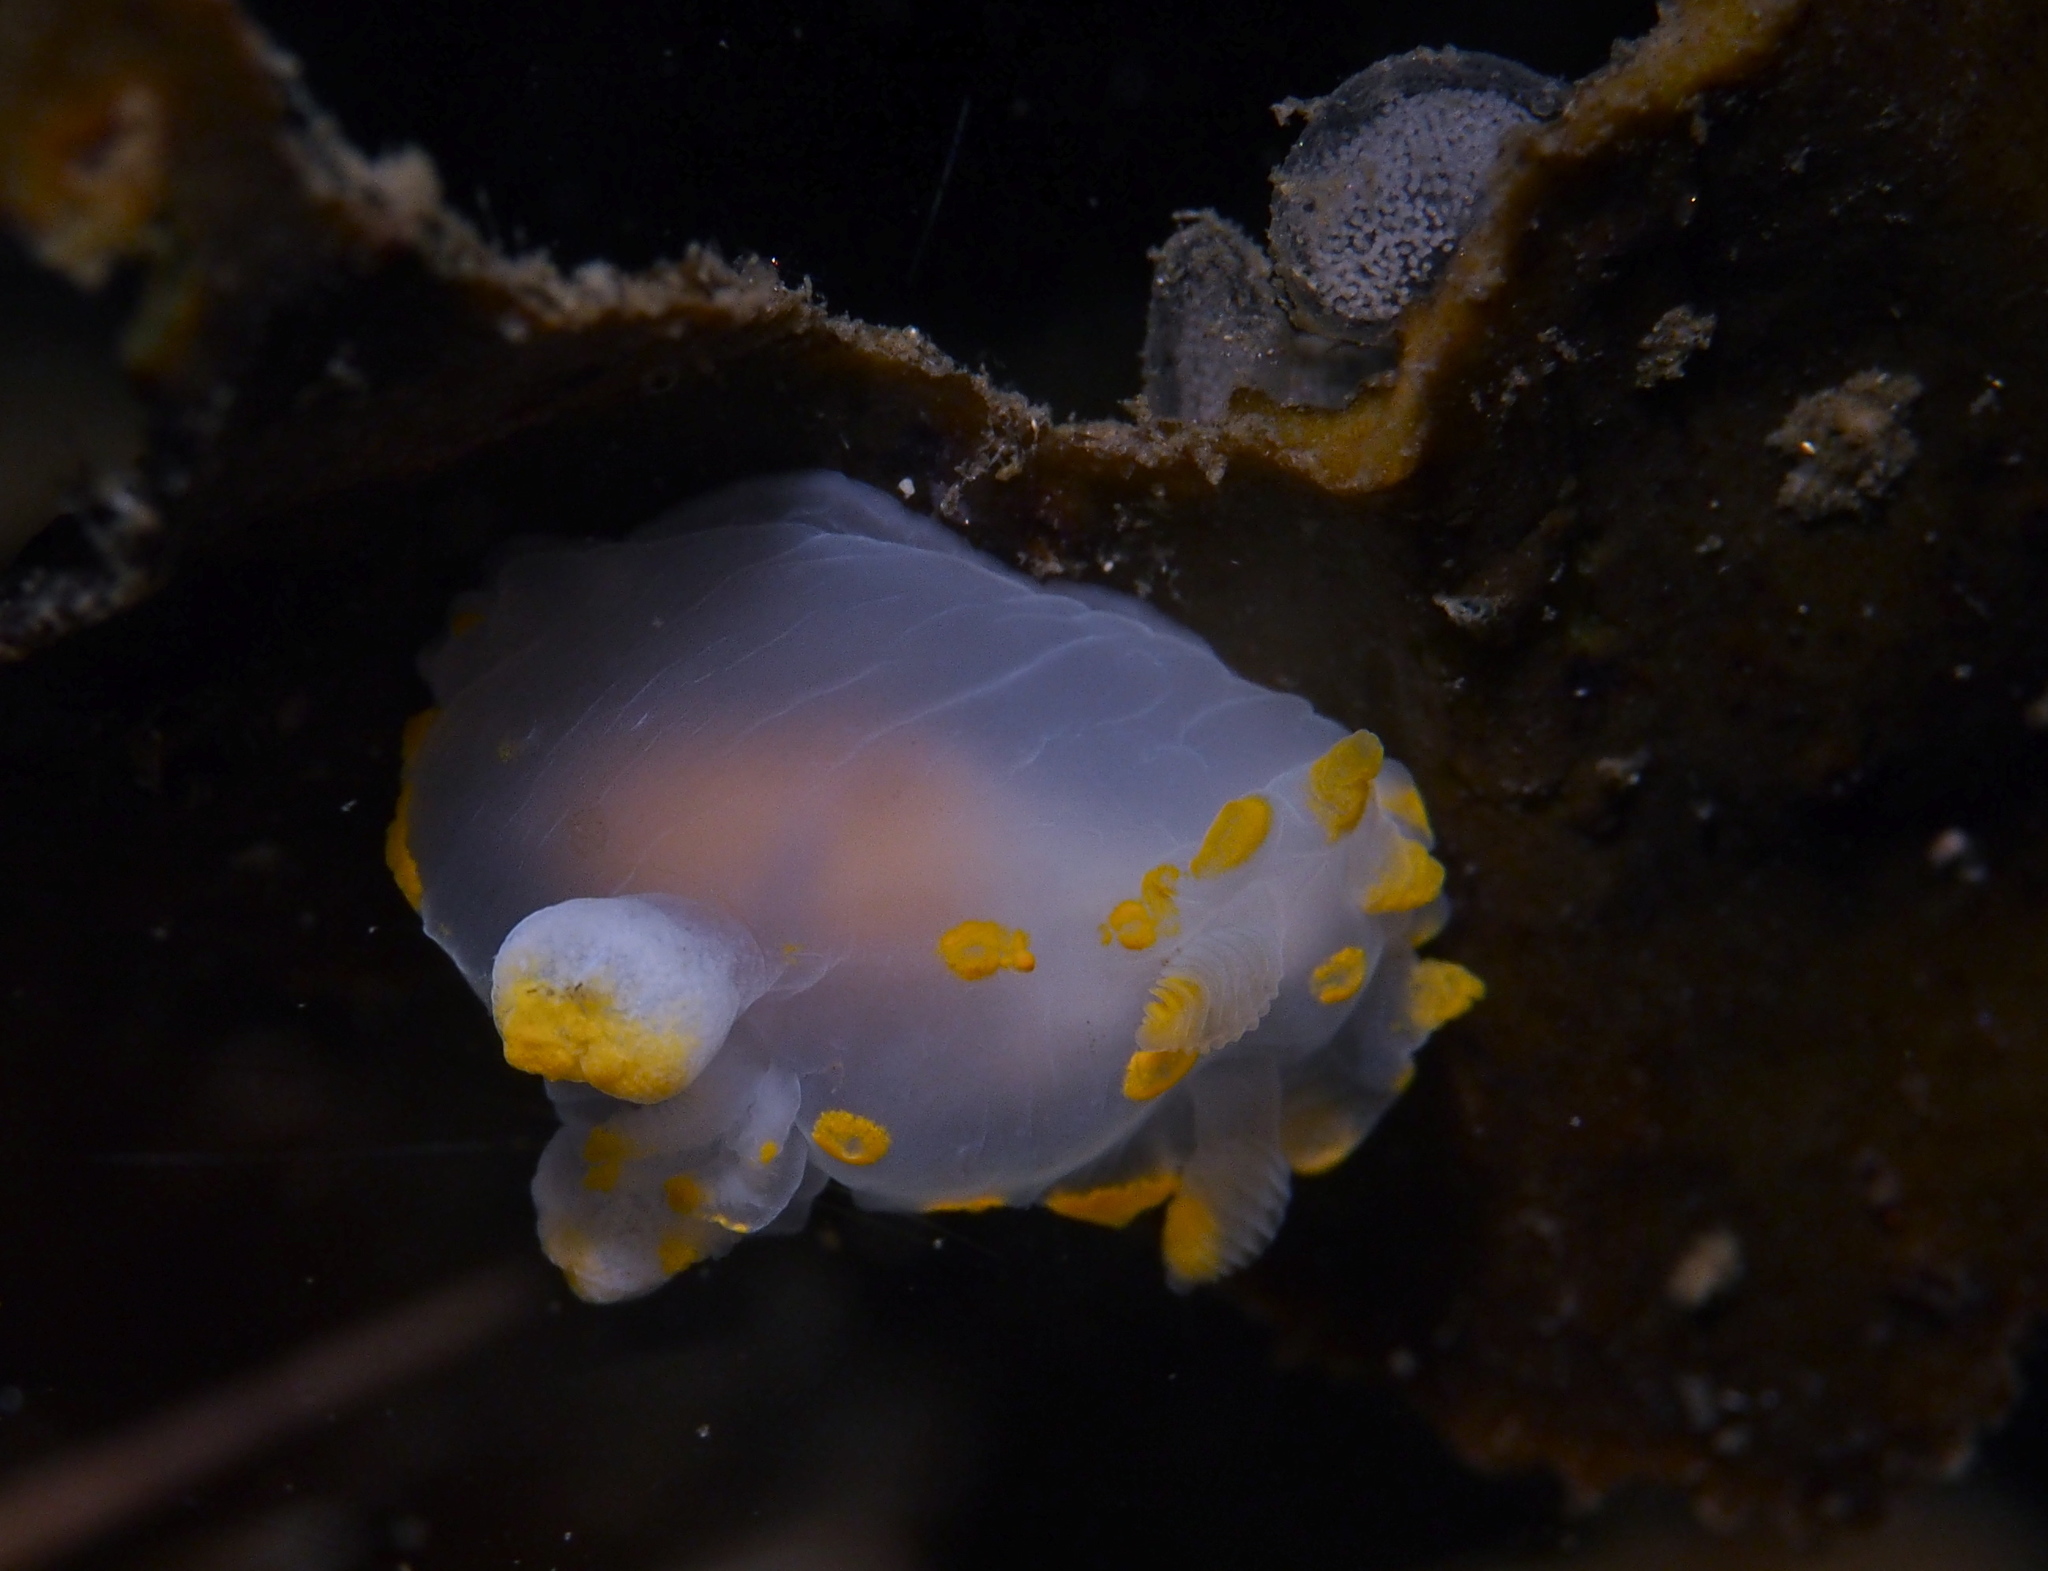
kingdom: Animalia
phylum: Mollusca
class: Gastropoda
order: Nudibranchia
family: Polyceridae
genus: Polycera
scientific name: Polycera quadrilineata
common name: Four-striped polycera
